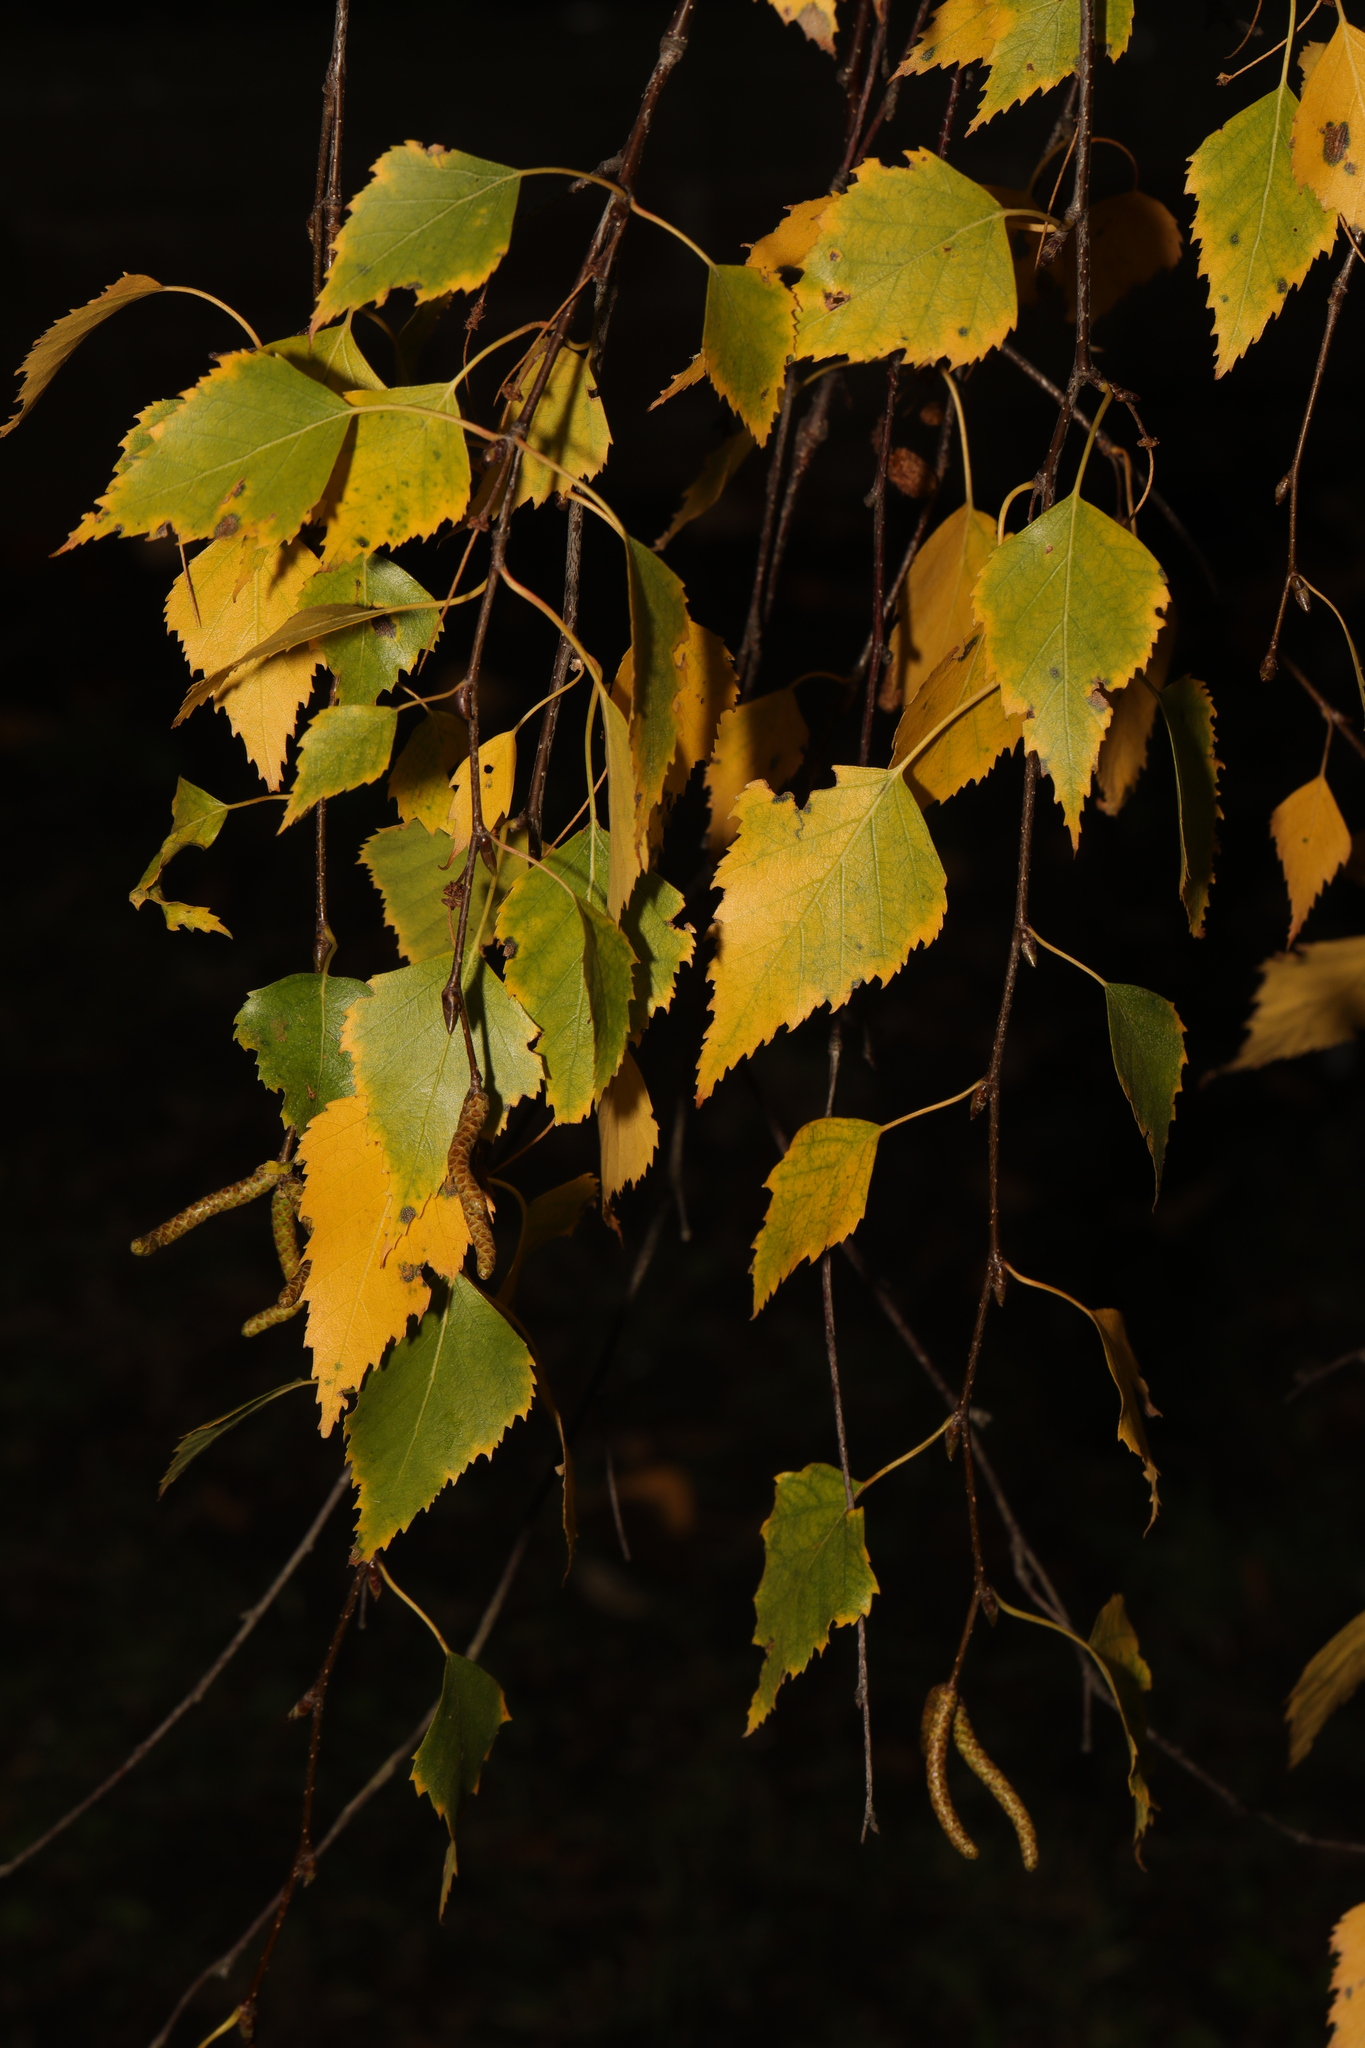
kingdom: Plantae
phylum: Tracheophyta
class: Magnoliopsida
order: Fagales
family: Betulaceae
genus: Betula
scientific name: Betula pendula
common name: Silver birch
